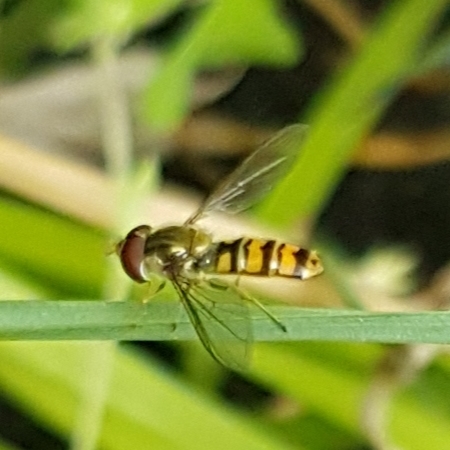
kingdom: Animalia
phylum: Arthropoda
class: Insecta
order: Diptera
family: Syrphidae
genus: Episyrphus
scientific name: Episyrphus balteatus
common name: Marmalade hoverfly
